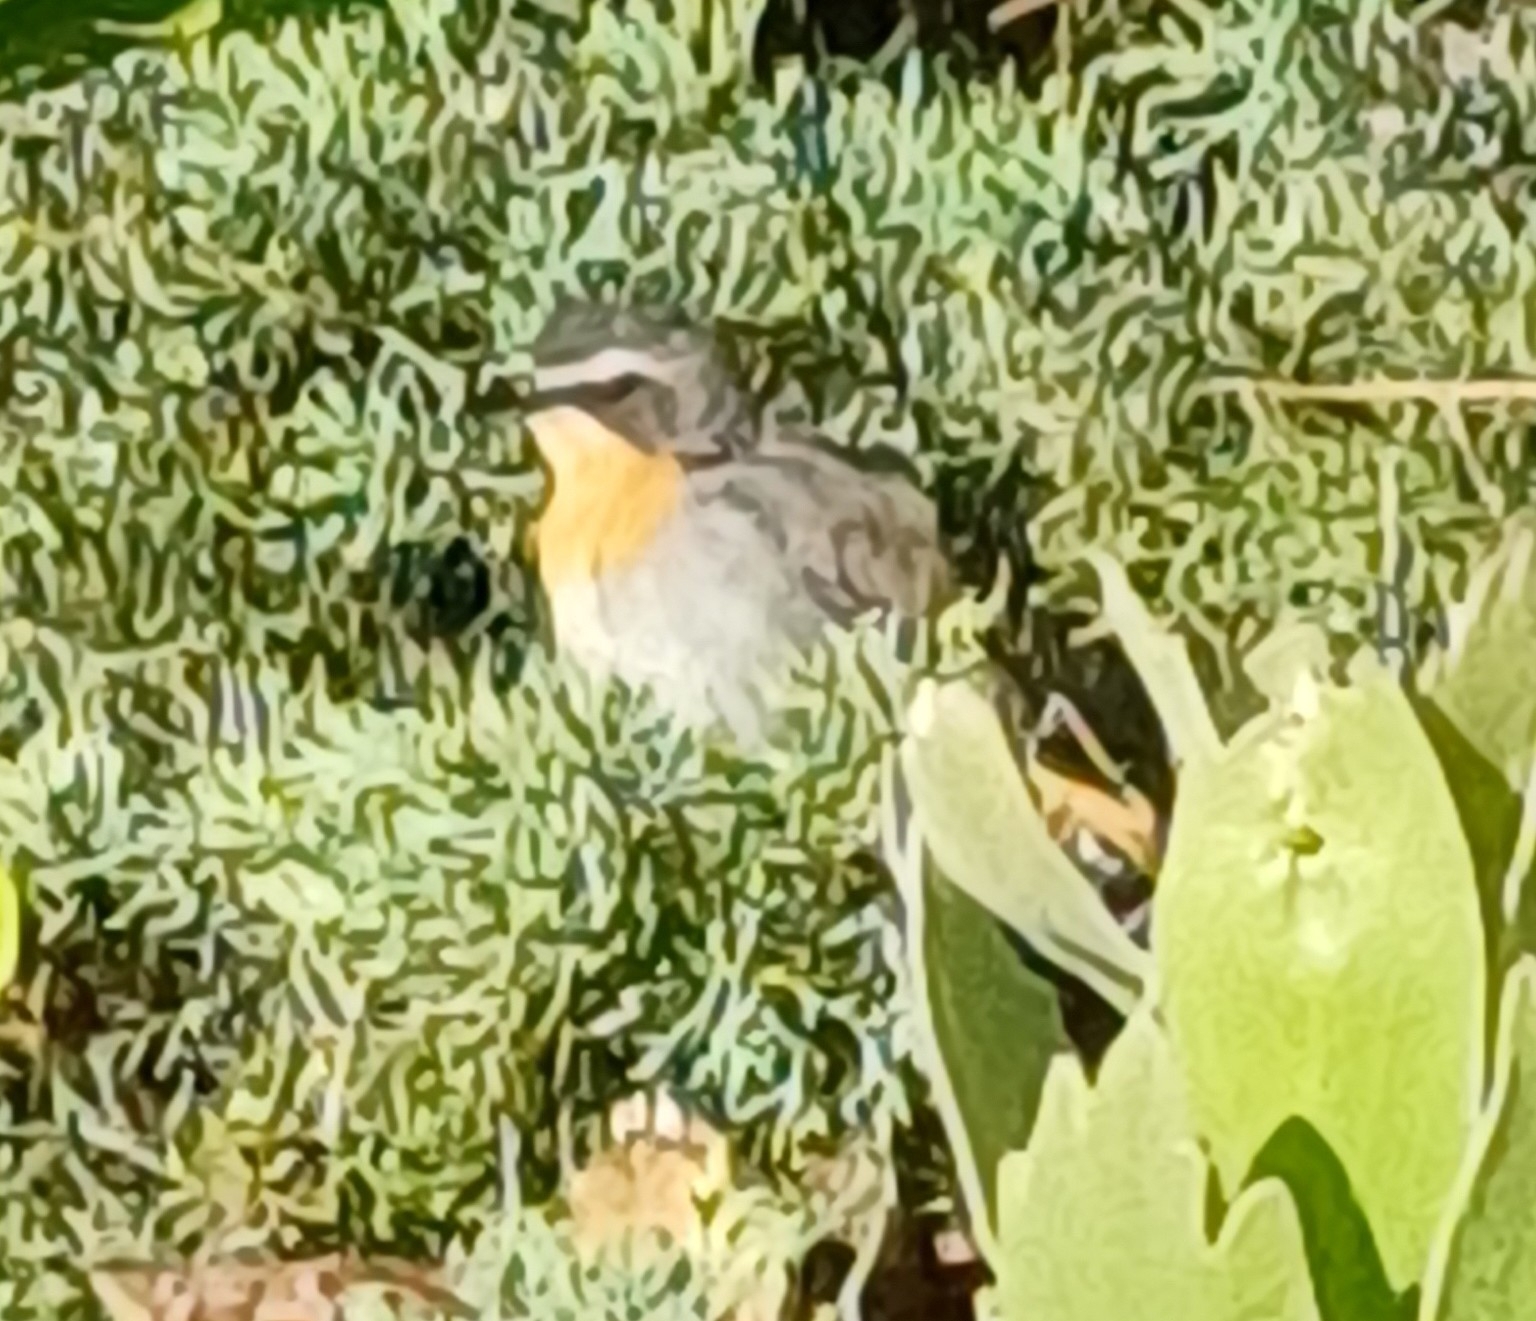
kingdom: Animalia
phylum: Chordata
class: Aves
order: Passeriformes
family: Muscicapidae
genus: Cossypha
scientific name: Cossypha caffra
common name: Cape robin-chat
